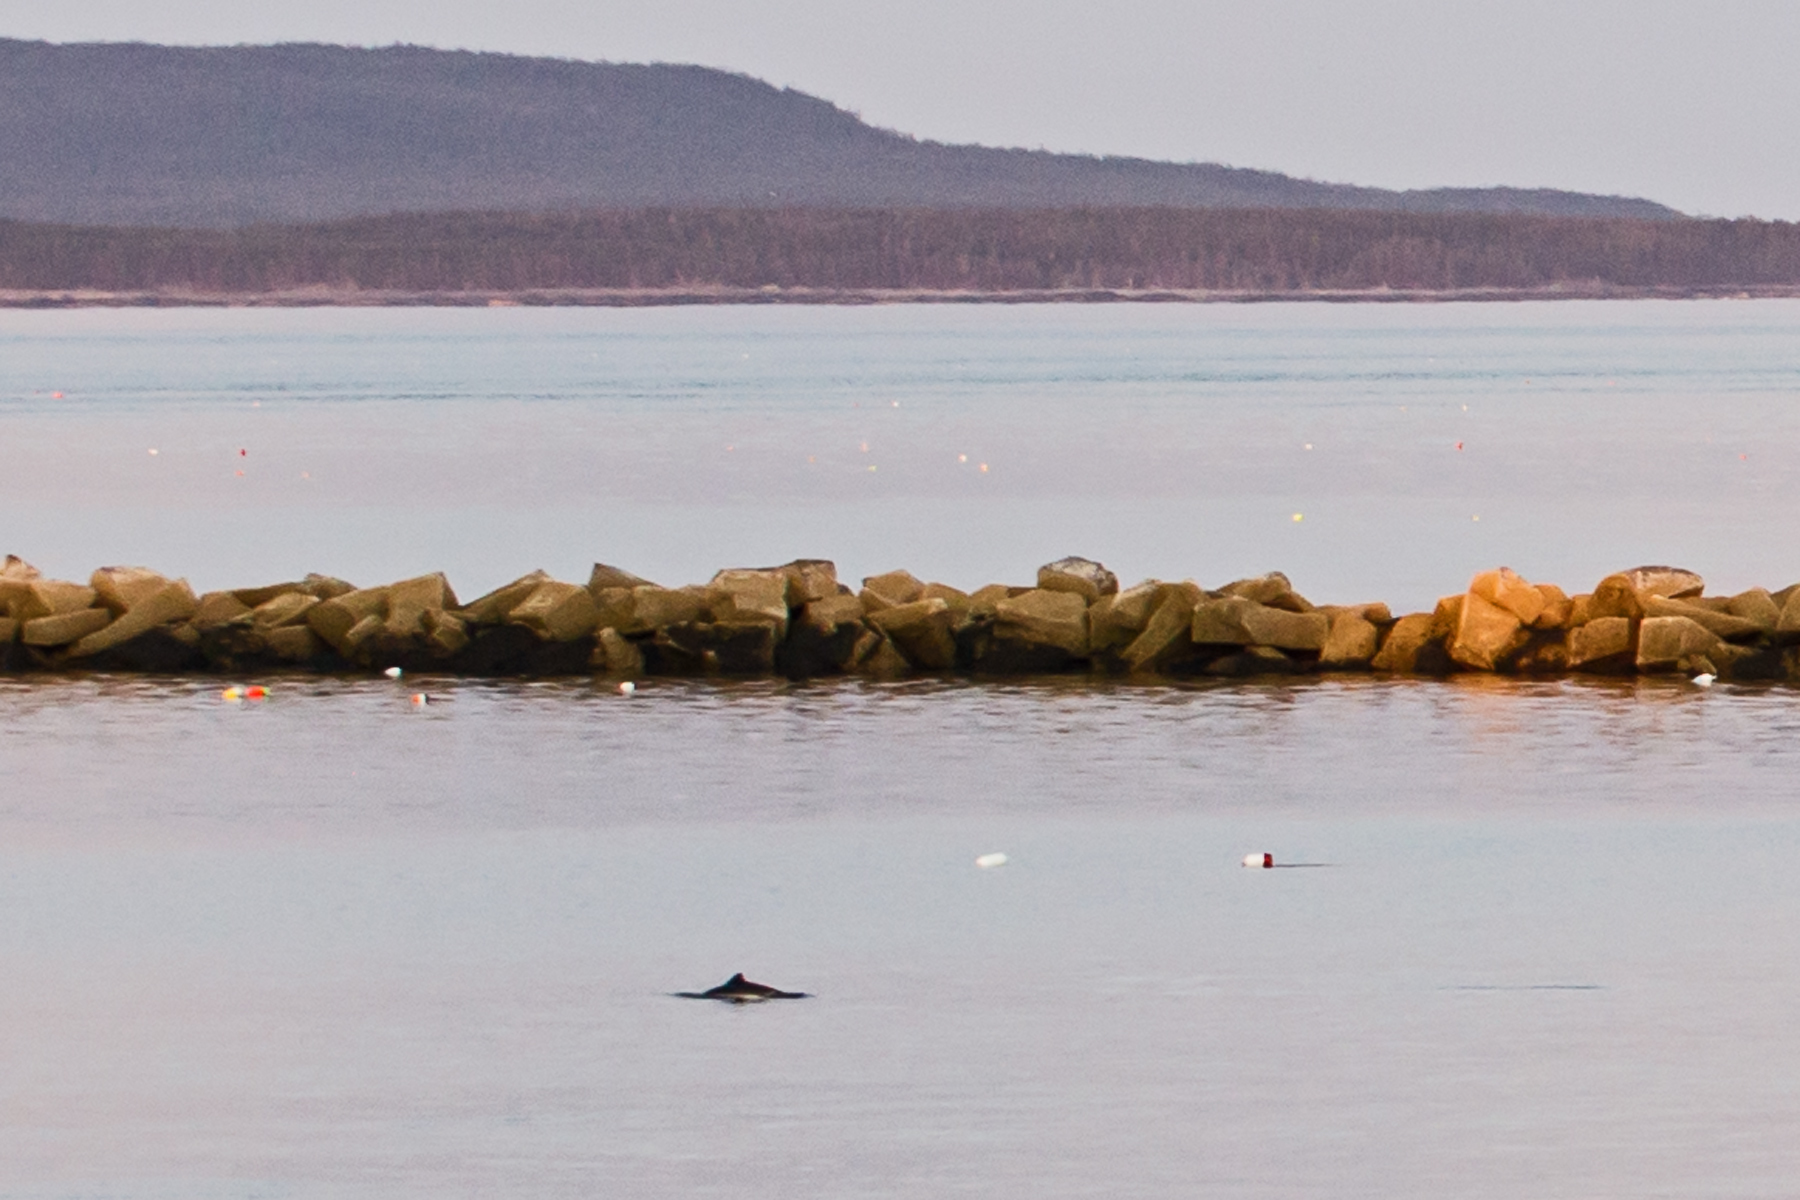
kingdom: Animalia
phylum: Chordata
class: Mammalia
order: Cetacea
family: Phocoenidae
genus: Phocoena
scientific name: Phocoena phocoena
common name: Harbor porpoise
